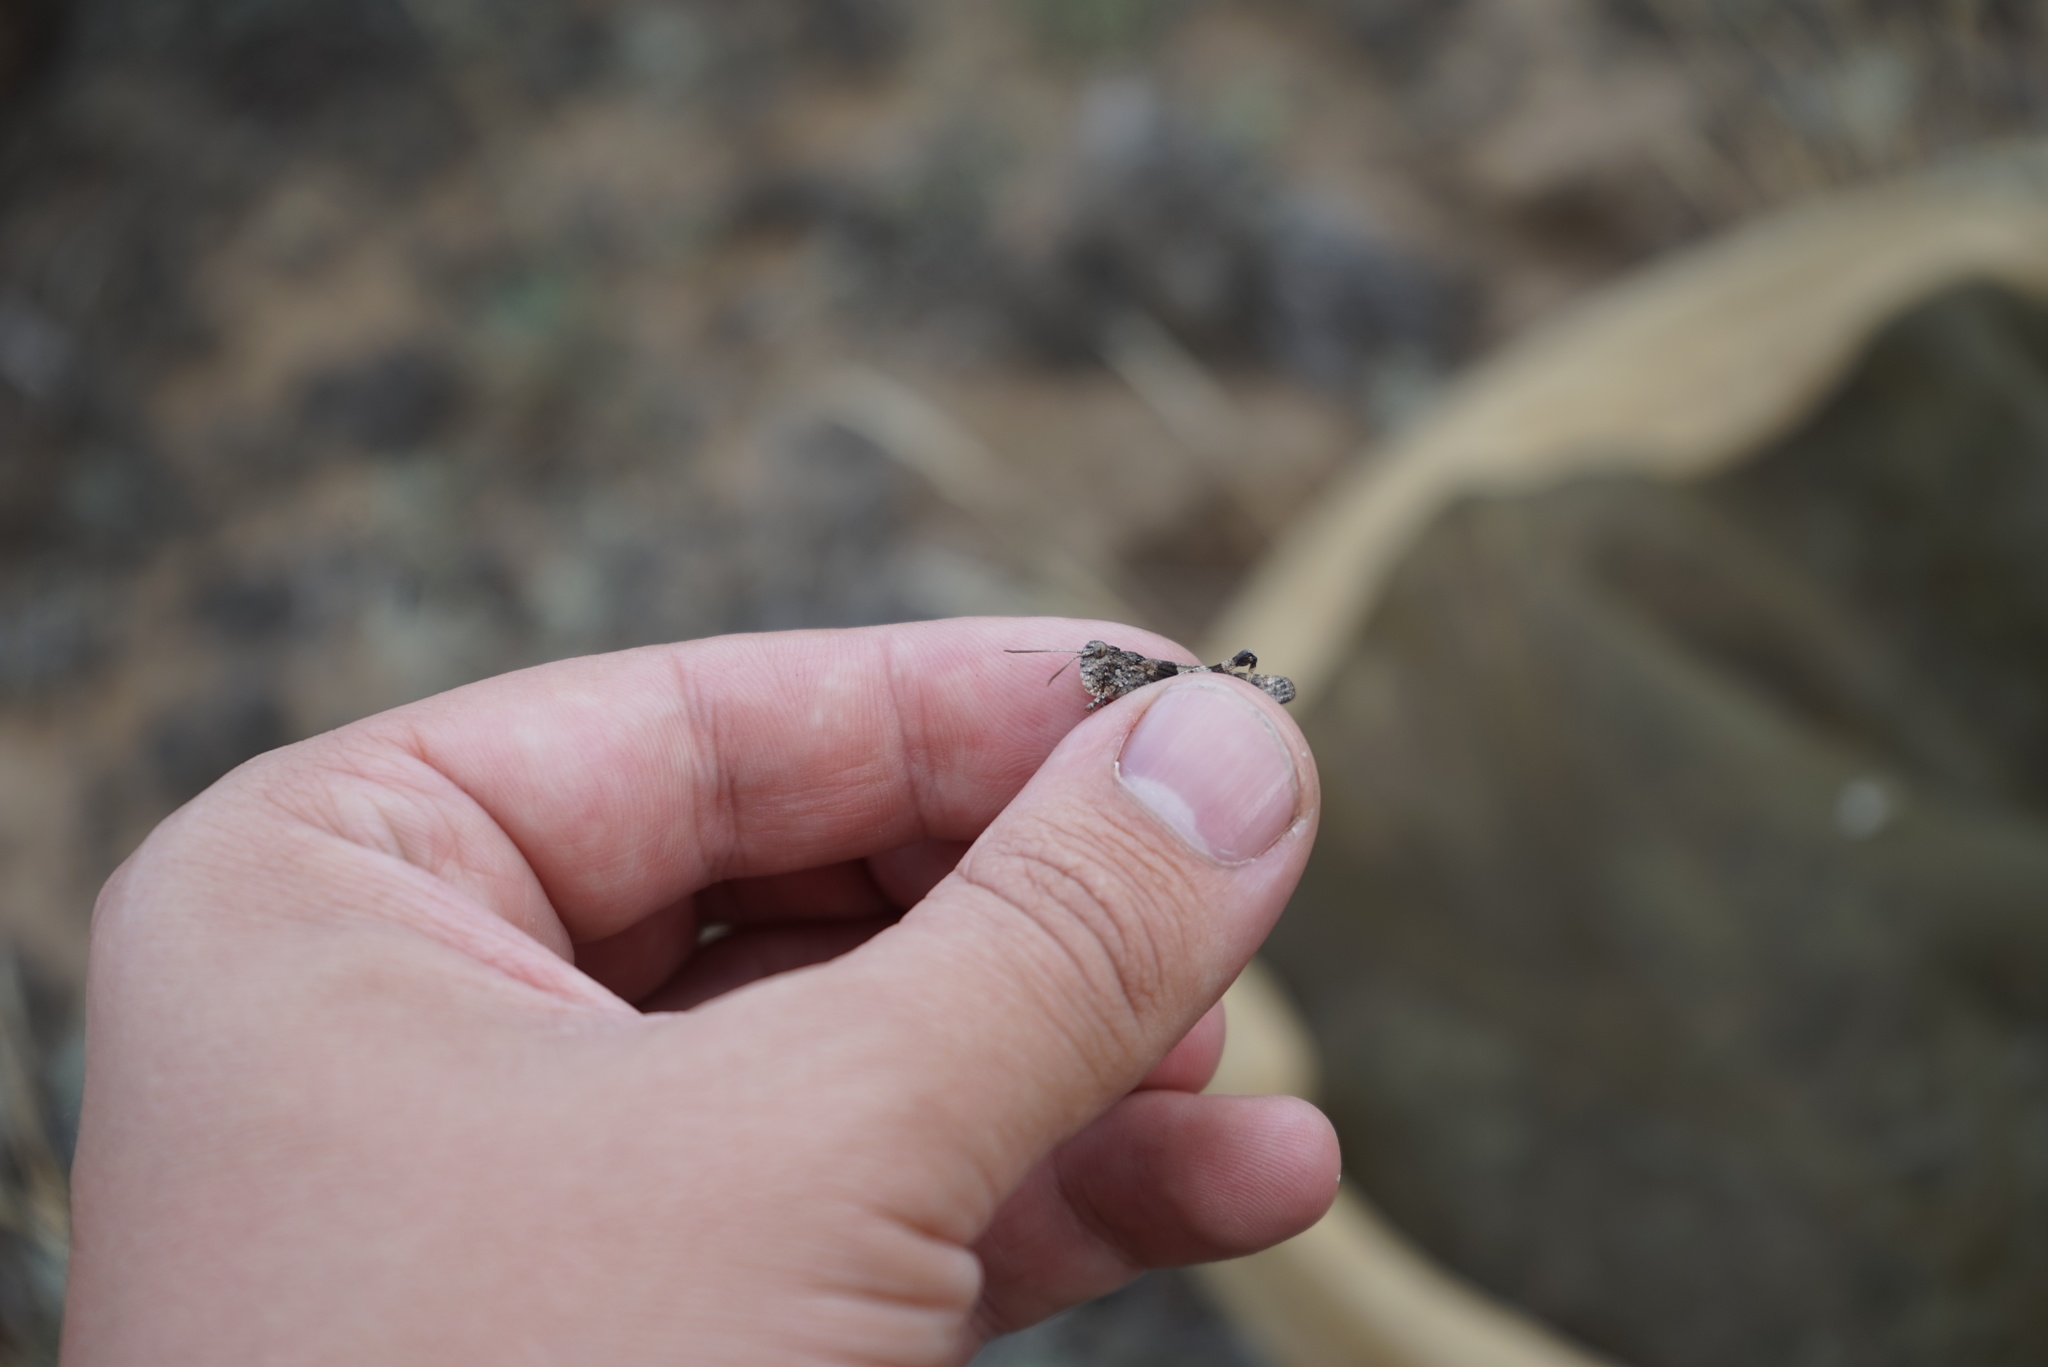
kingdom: Animalia
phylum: Arthropoda
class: Insecta
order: Orthoptera
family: Acrididae
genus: Oedipoda
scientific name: Oedipoda caerulescens
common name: Blue-winged grasshopper
